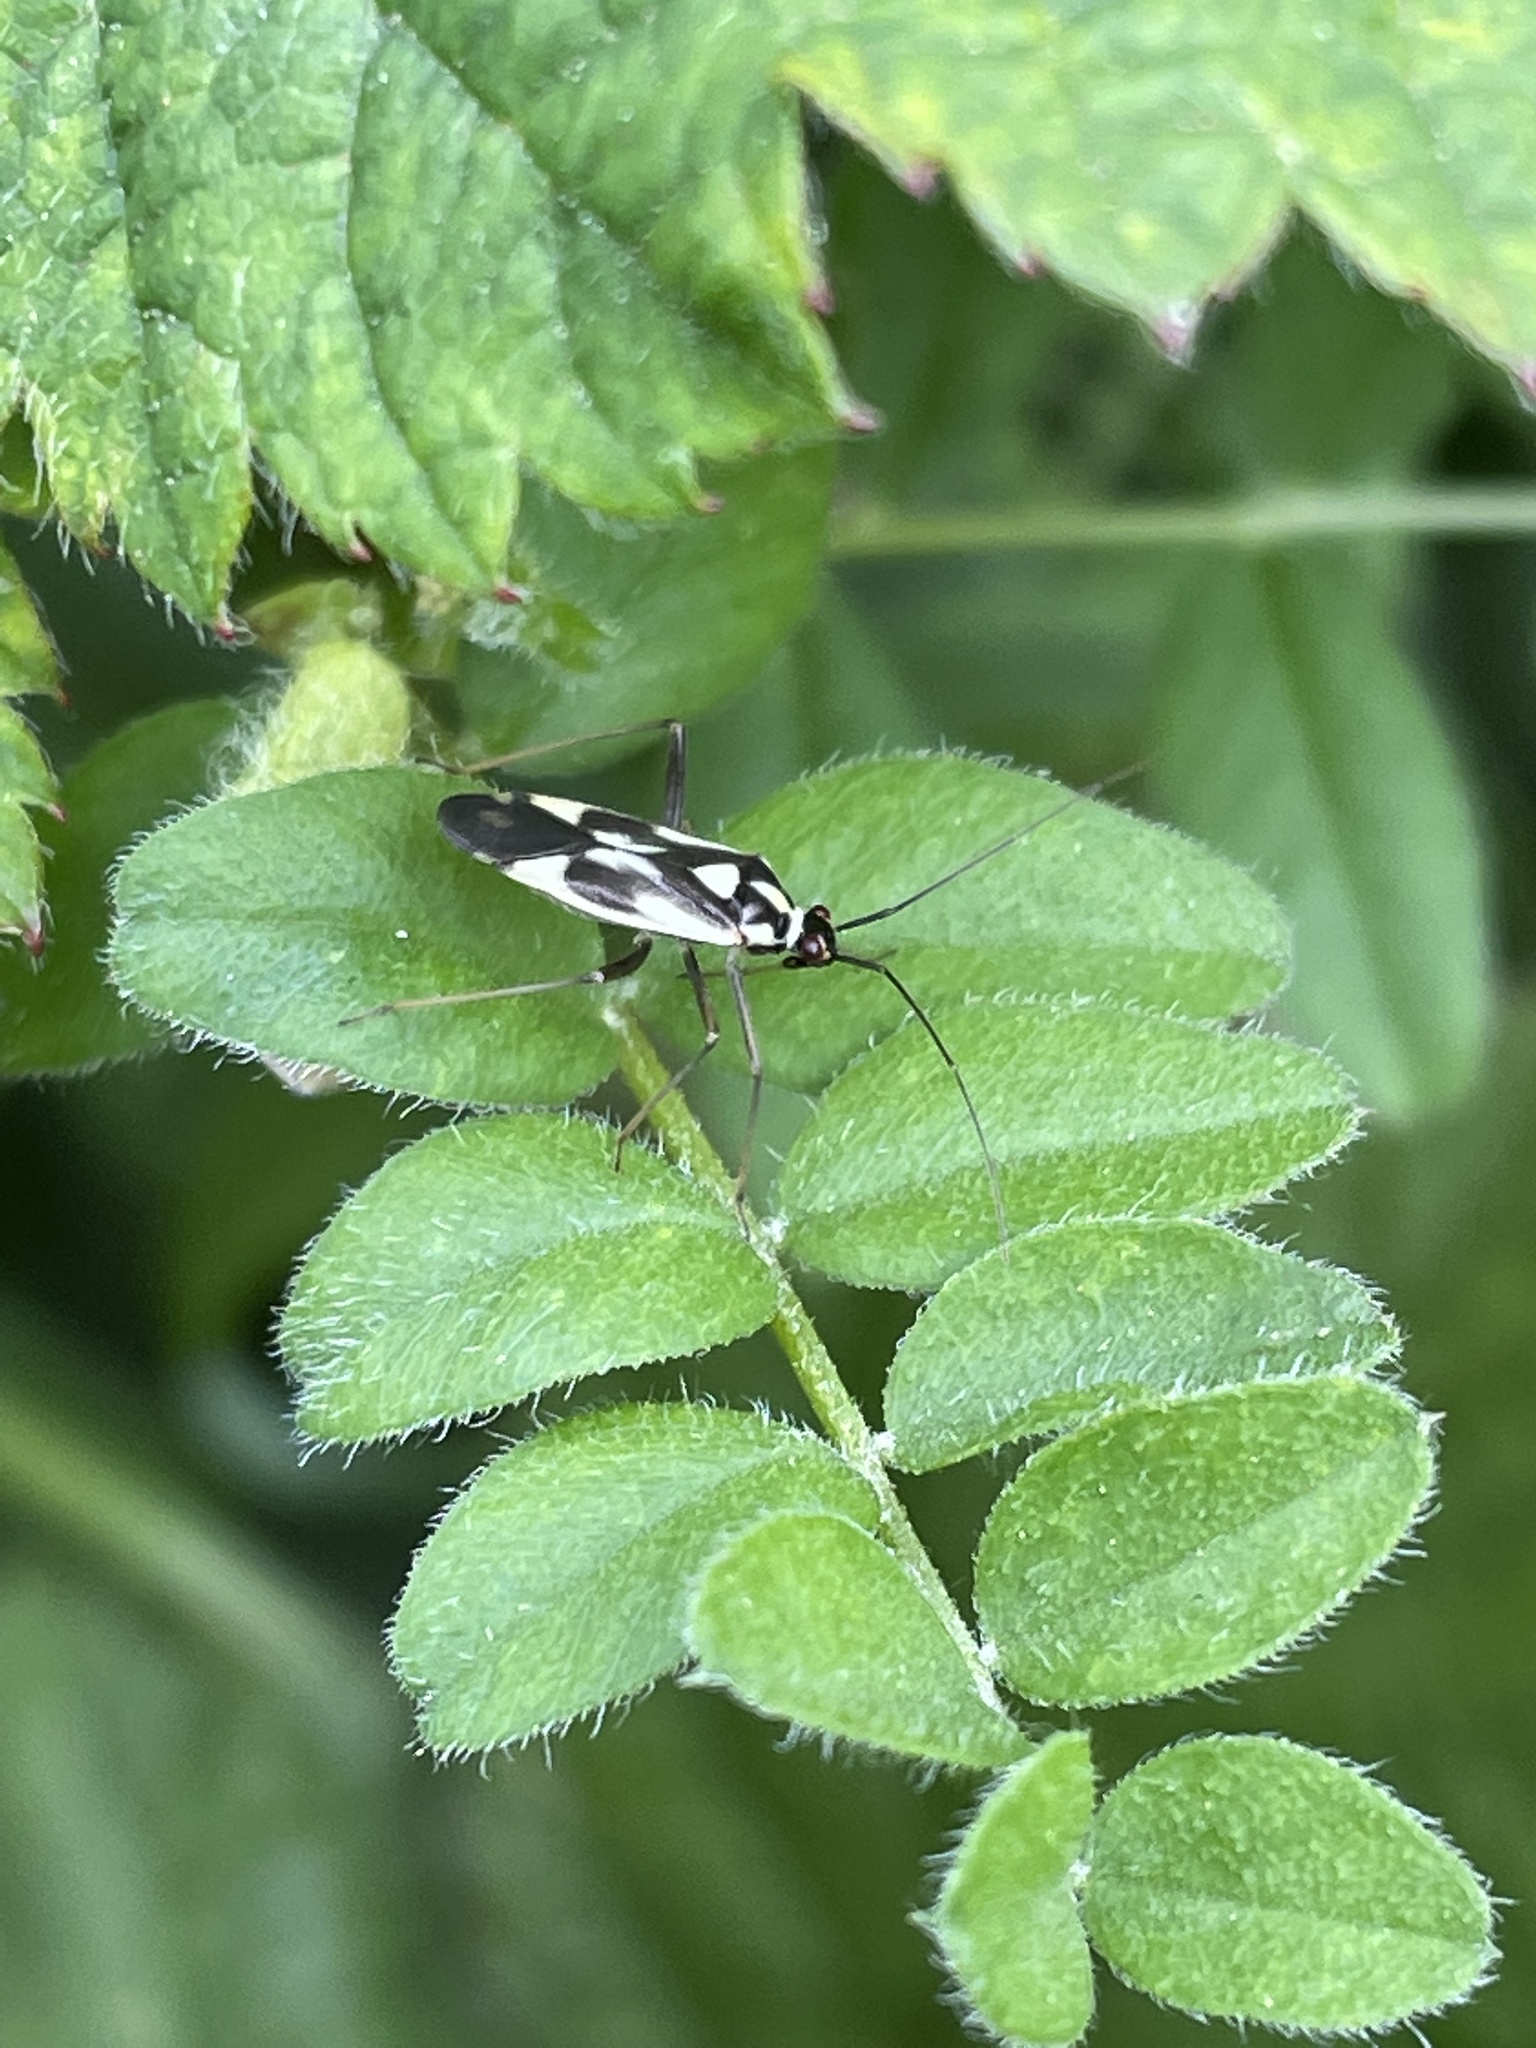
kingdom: Animalia
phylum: Arthropoda
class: Insecta
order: Hemiptera
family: Miridae
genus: Grypocoris
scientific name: Grypocoris stysi
